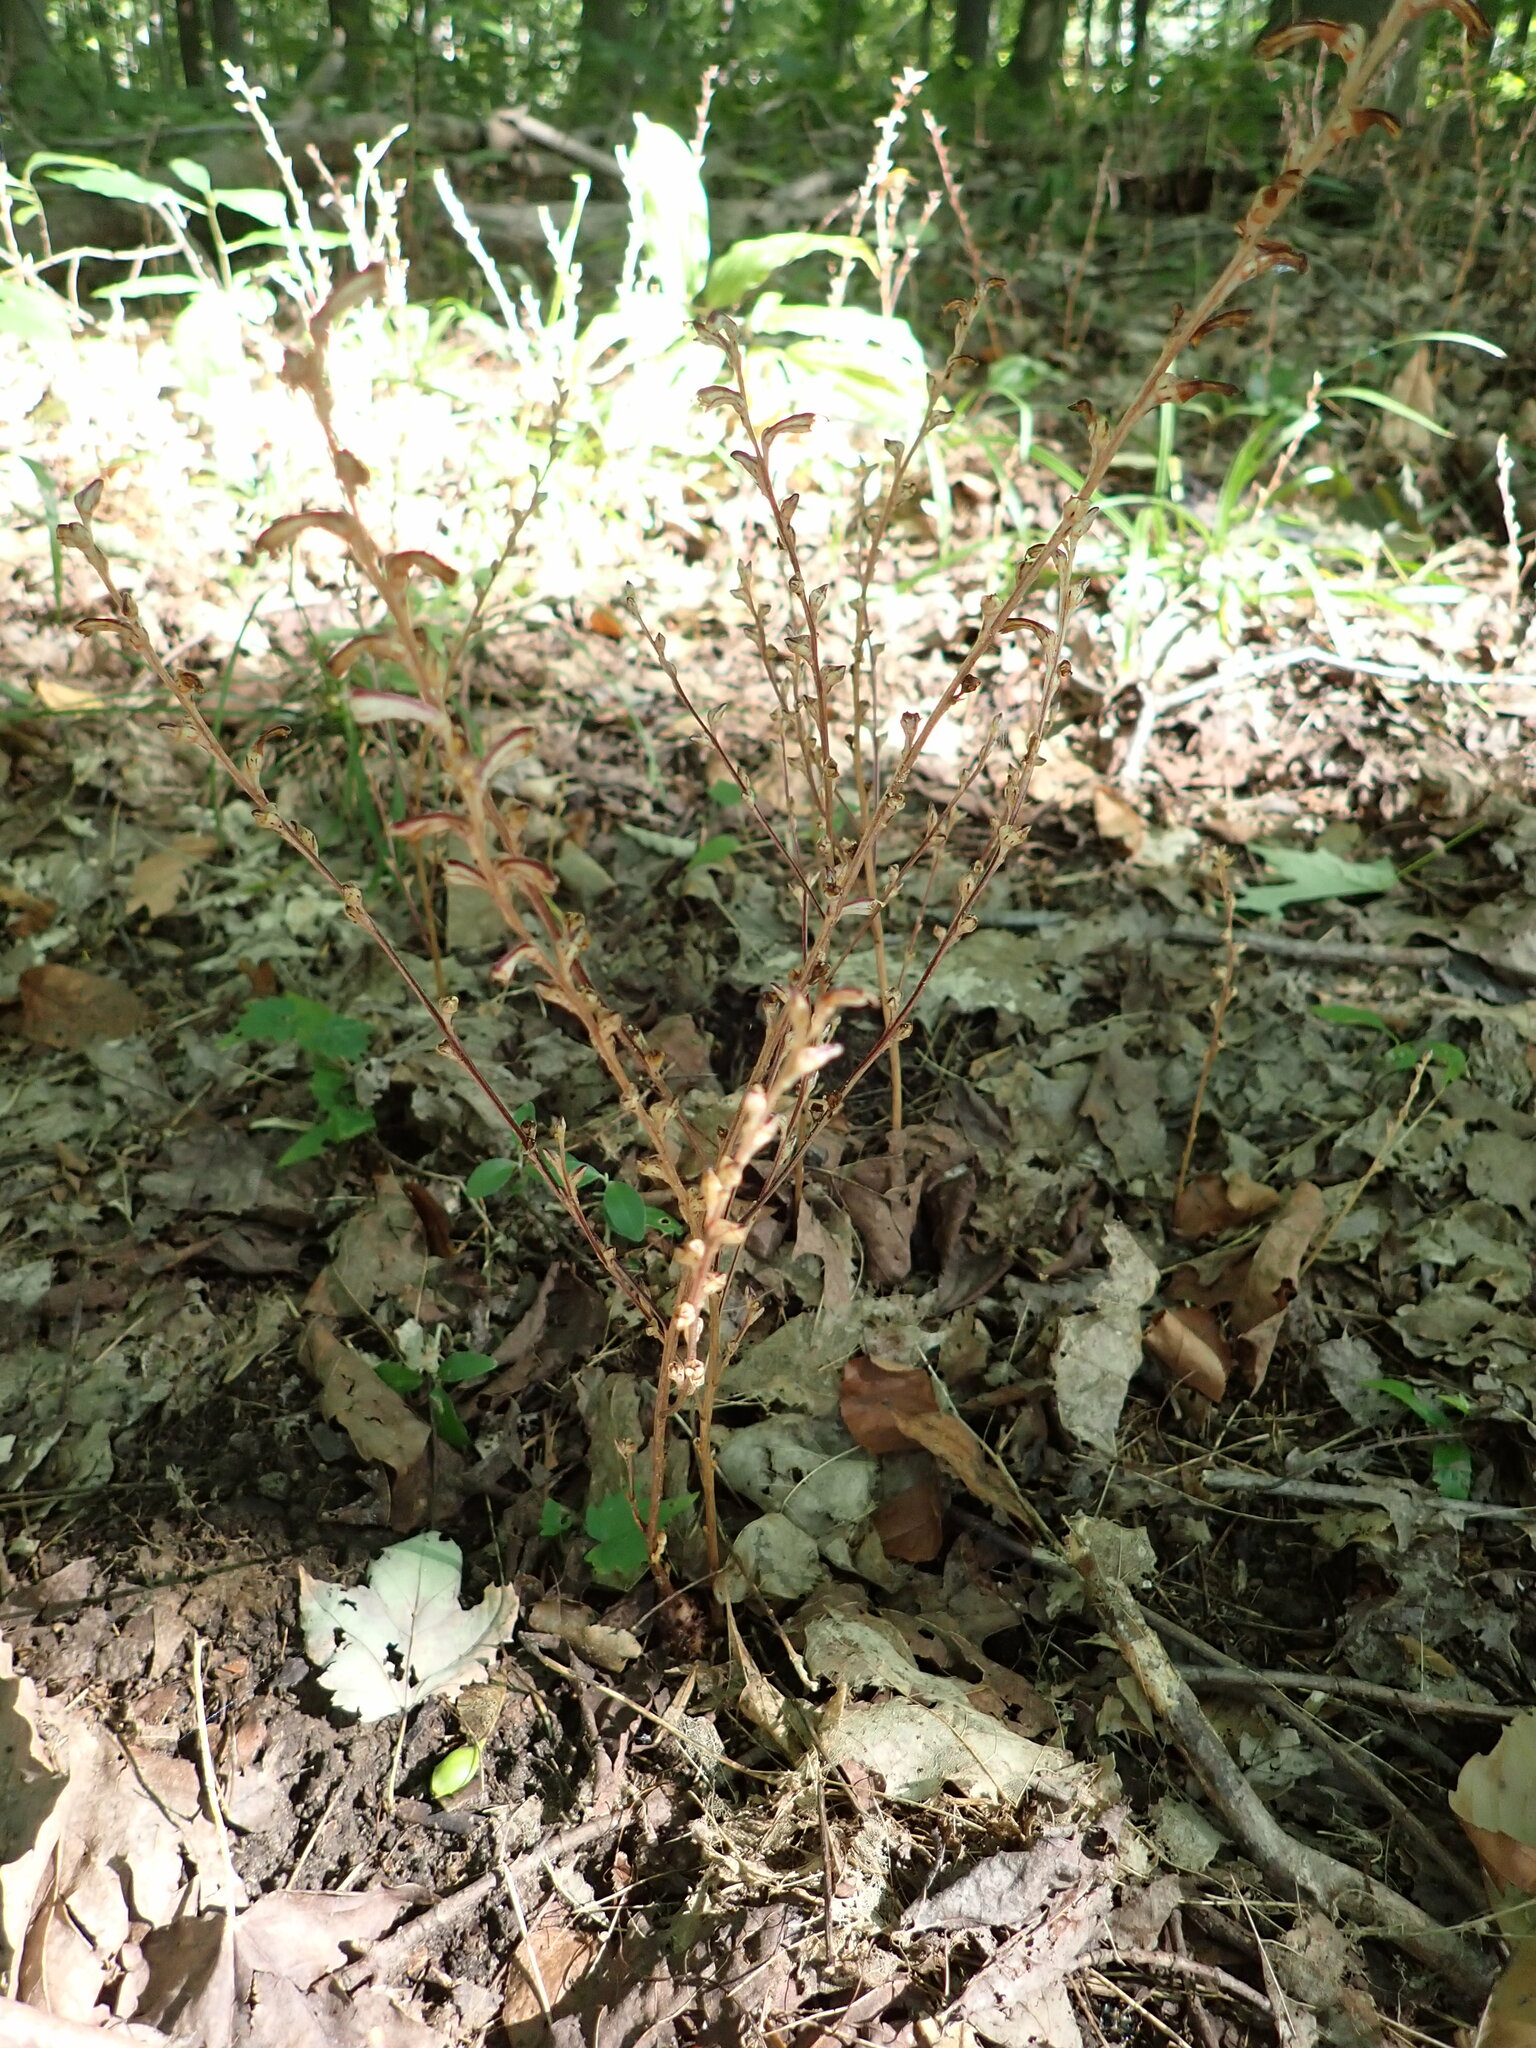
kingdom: Plantae
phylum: Tracheophyta
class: Magnoliopsida
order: Lamiales
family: Orobanchaceae
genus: Epifagus
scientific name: Epifagus virginiana
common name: Beechdrops
